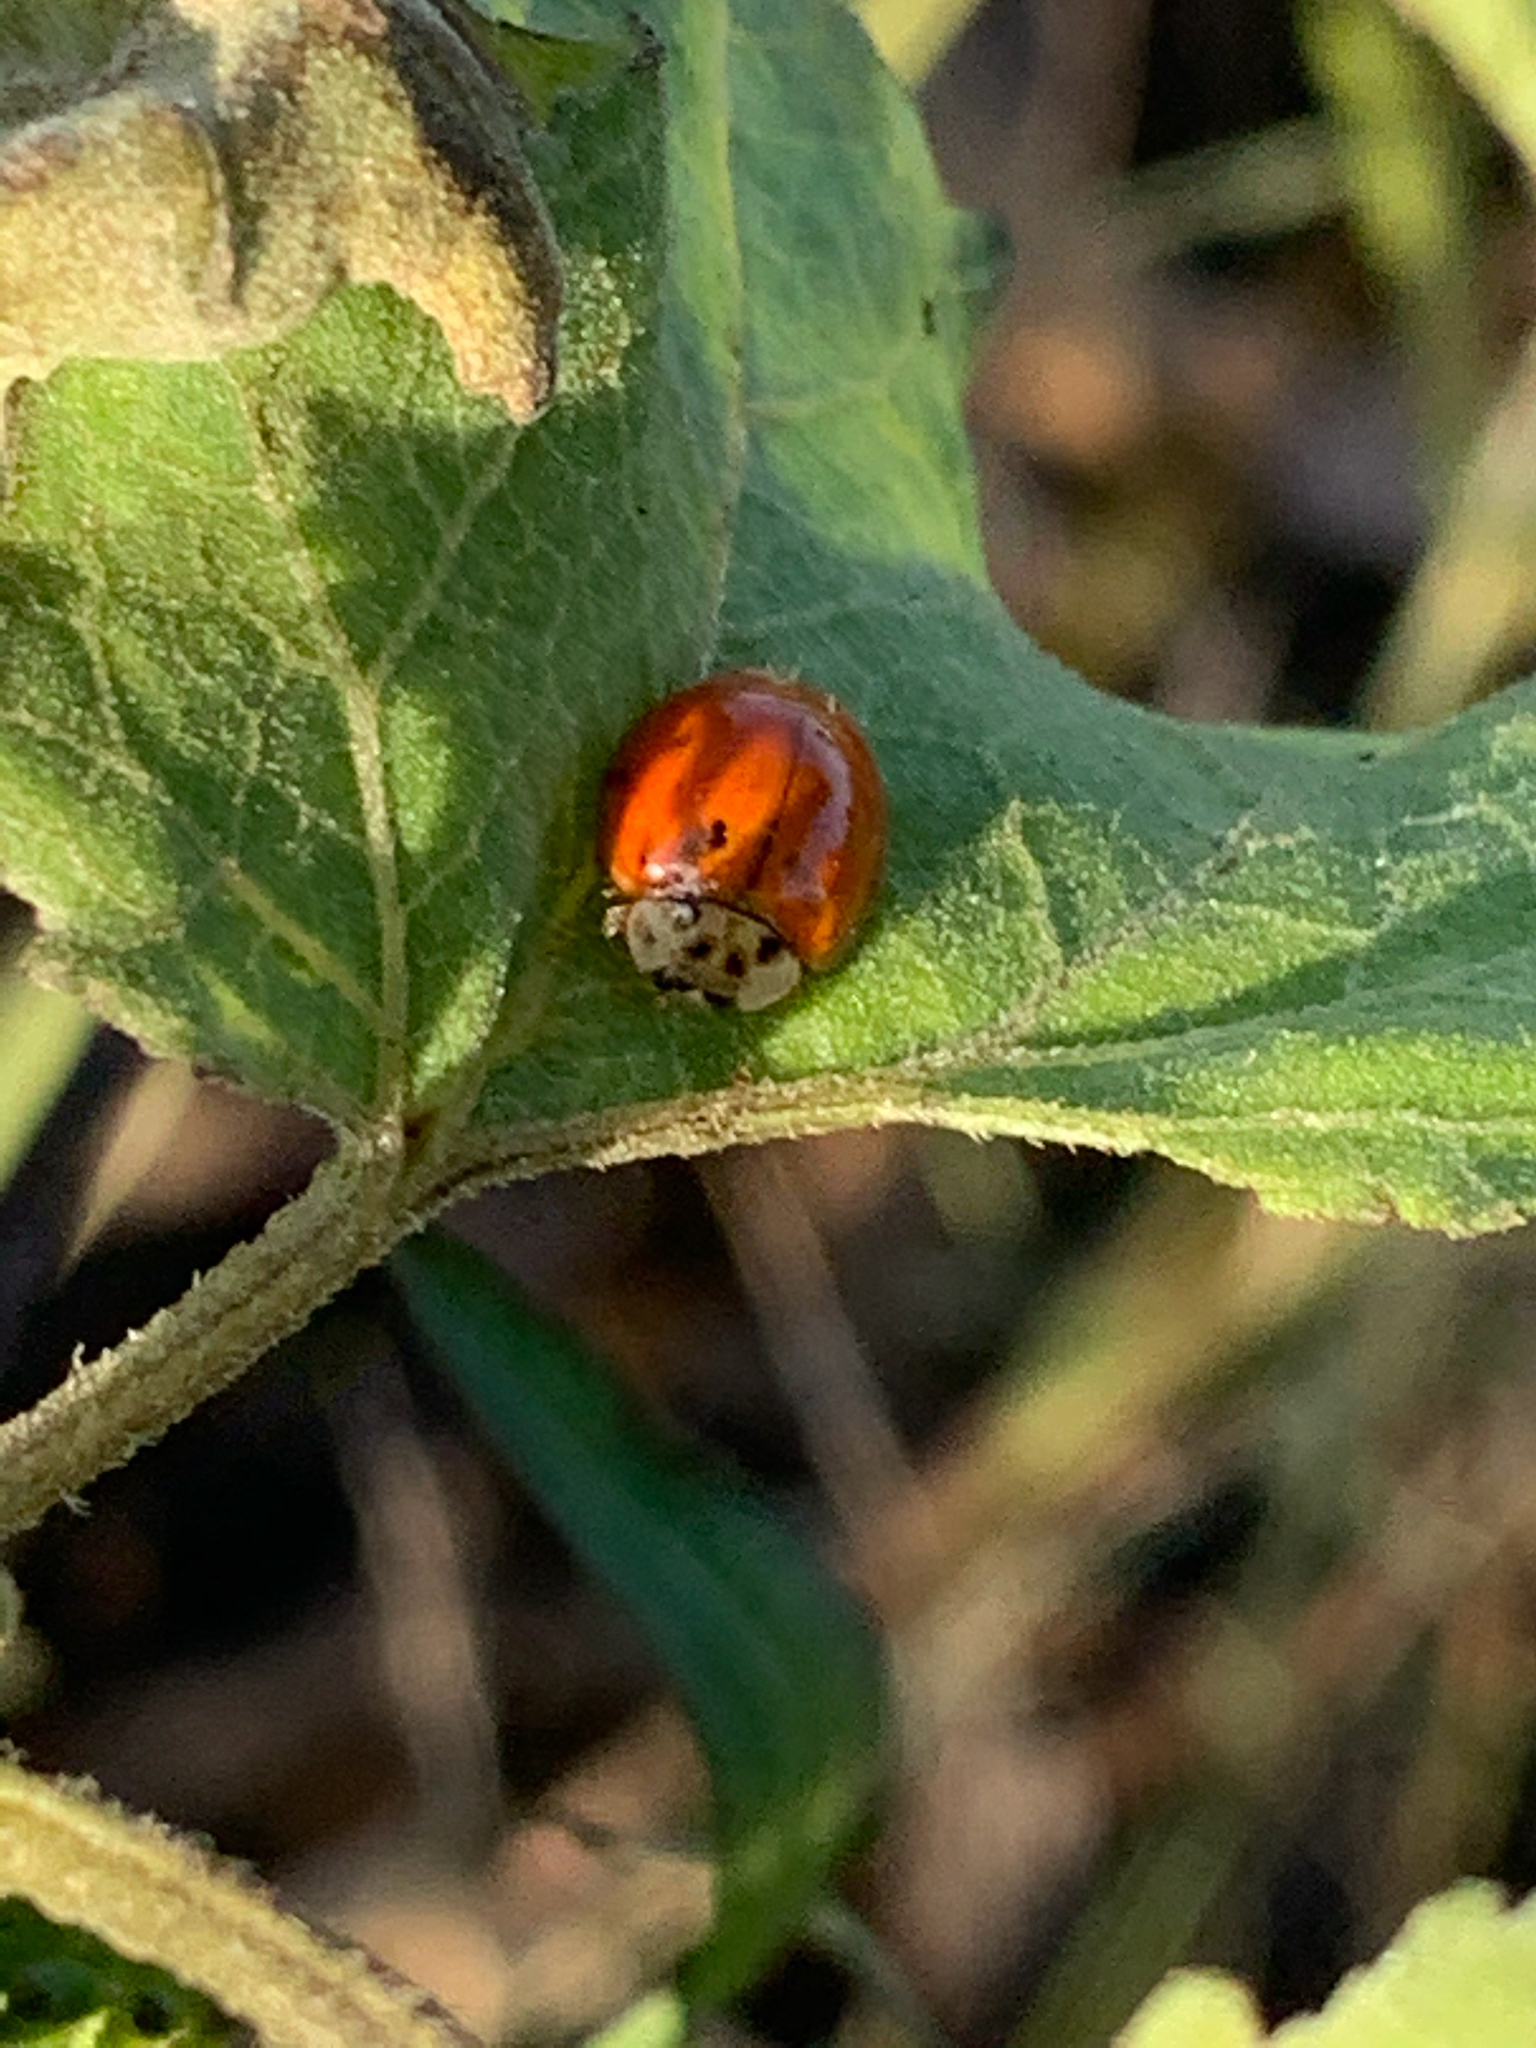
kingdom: Animalia
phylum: Arthropoda
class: Insecta
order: Coleoptera
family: Coccinellidae
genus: Harmonia
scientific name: Harmonia axyridis
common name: Harlequin ladybird
